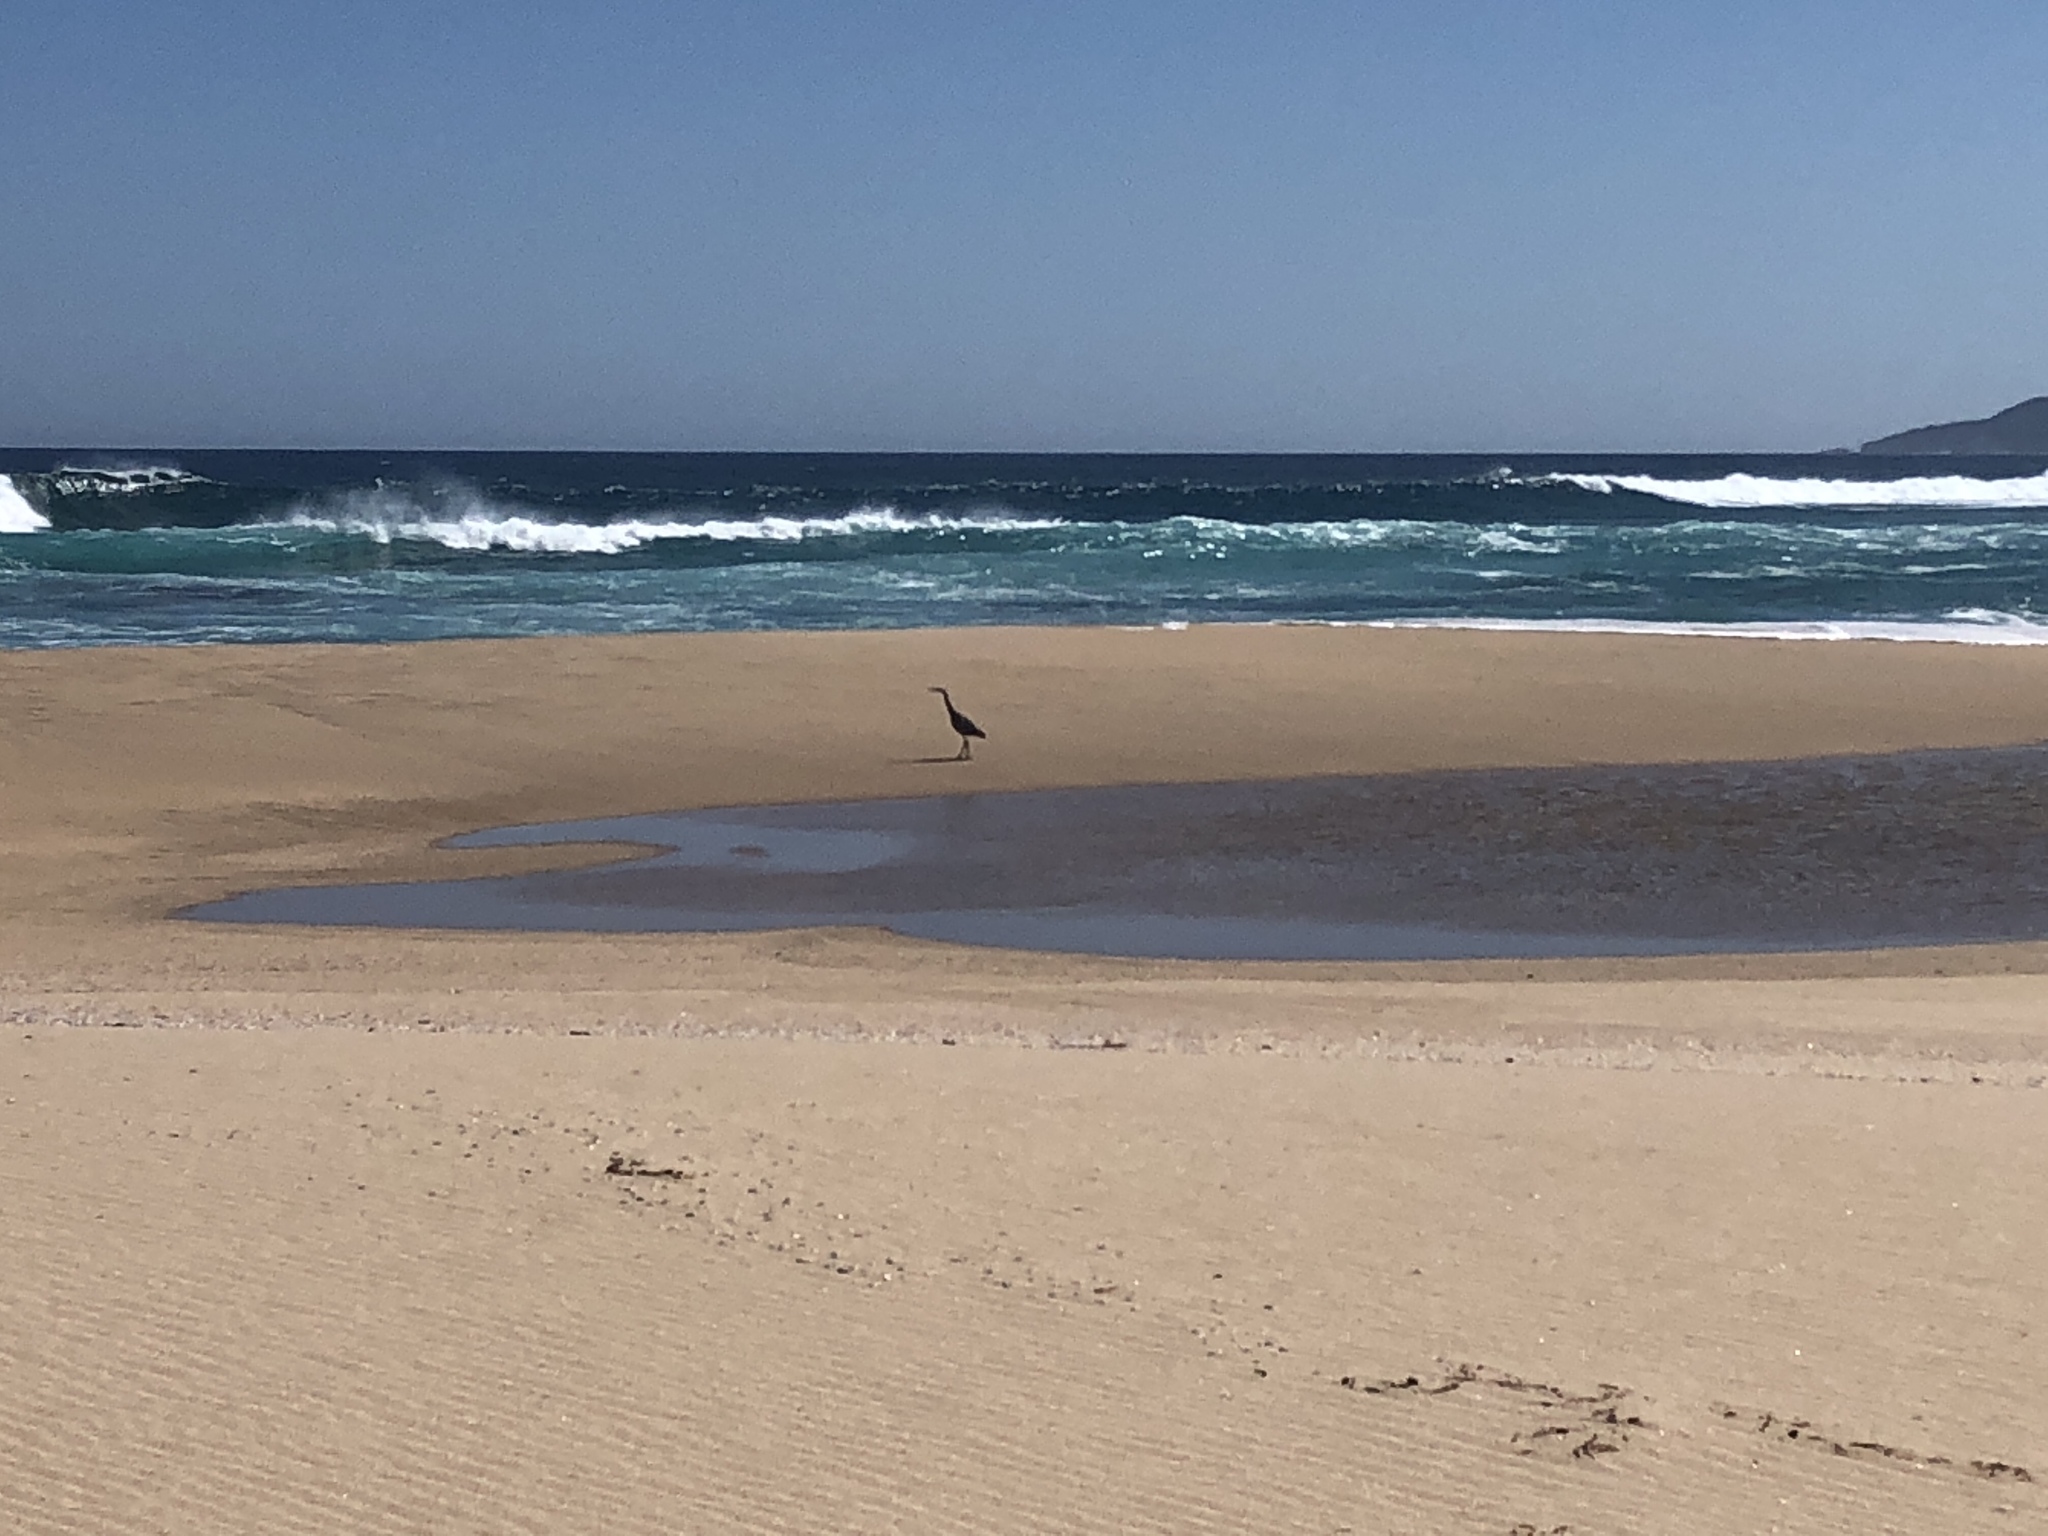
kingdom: Animalia
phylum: Chordata
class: Aves
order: Pelecaniformes
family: Ardeidae
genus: Egretta
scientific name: Egretta novaehollandiae
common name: White-faced heron
